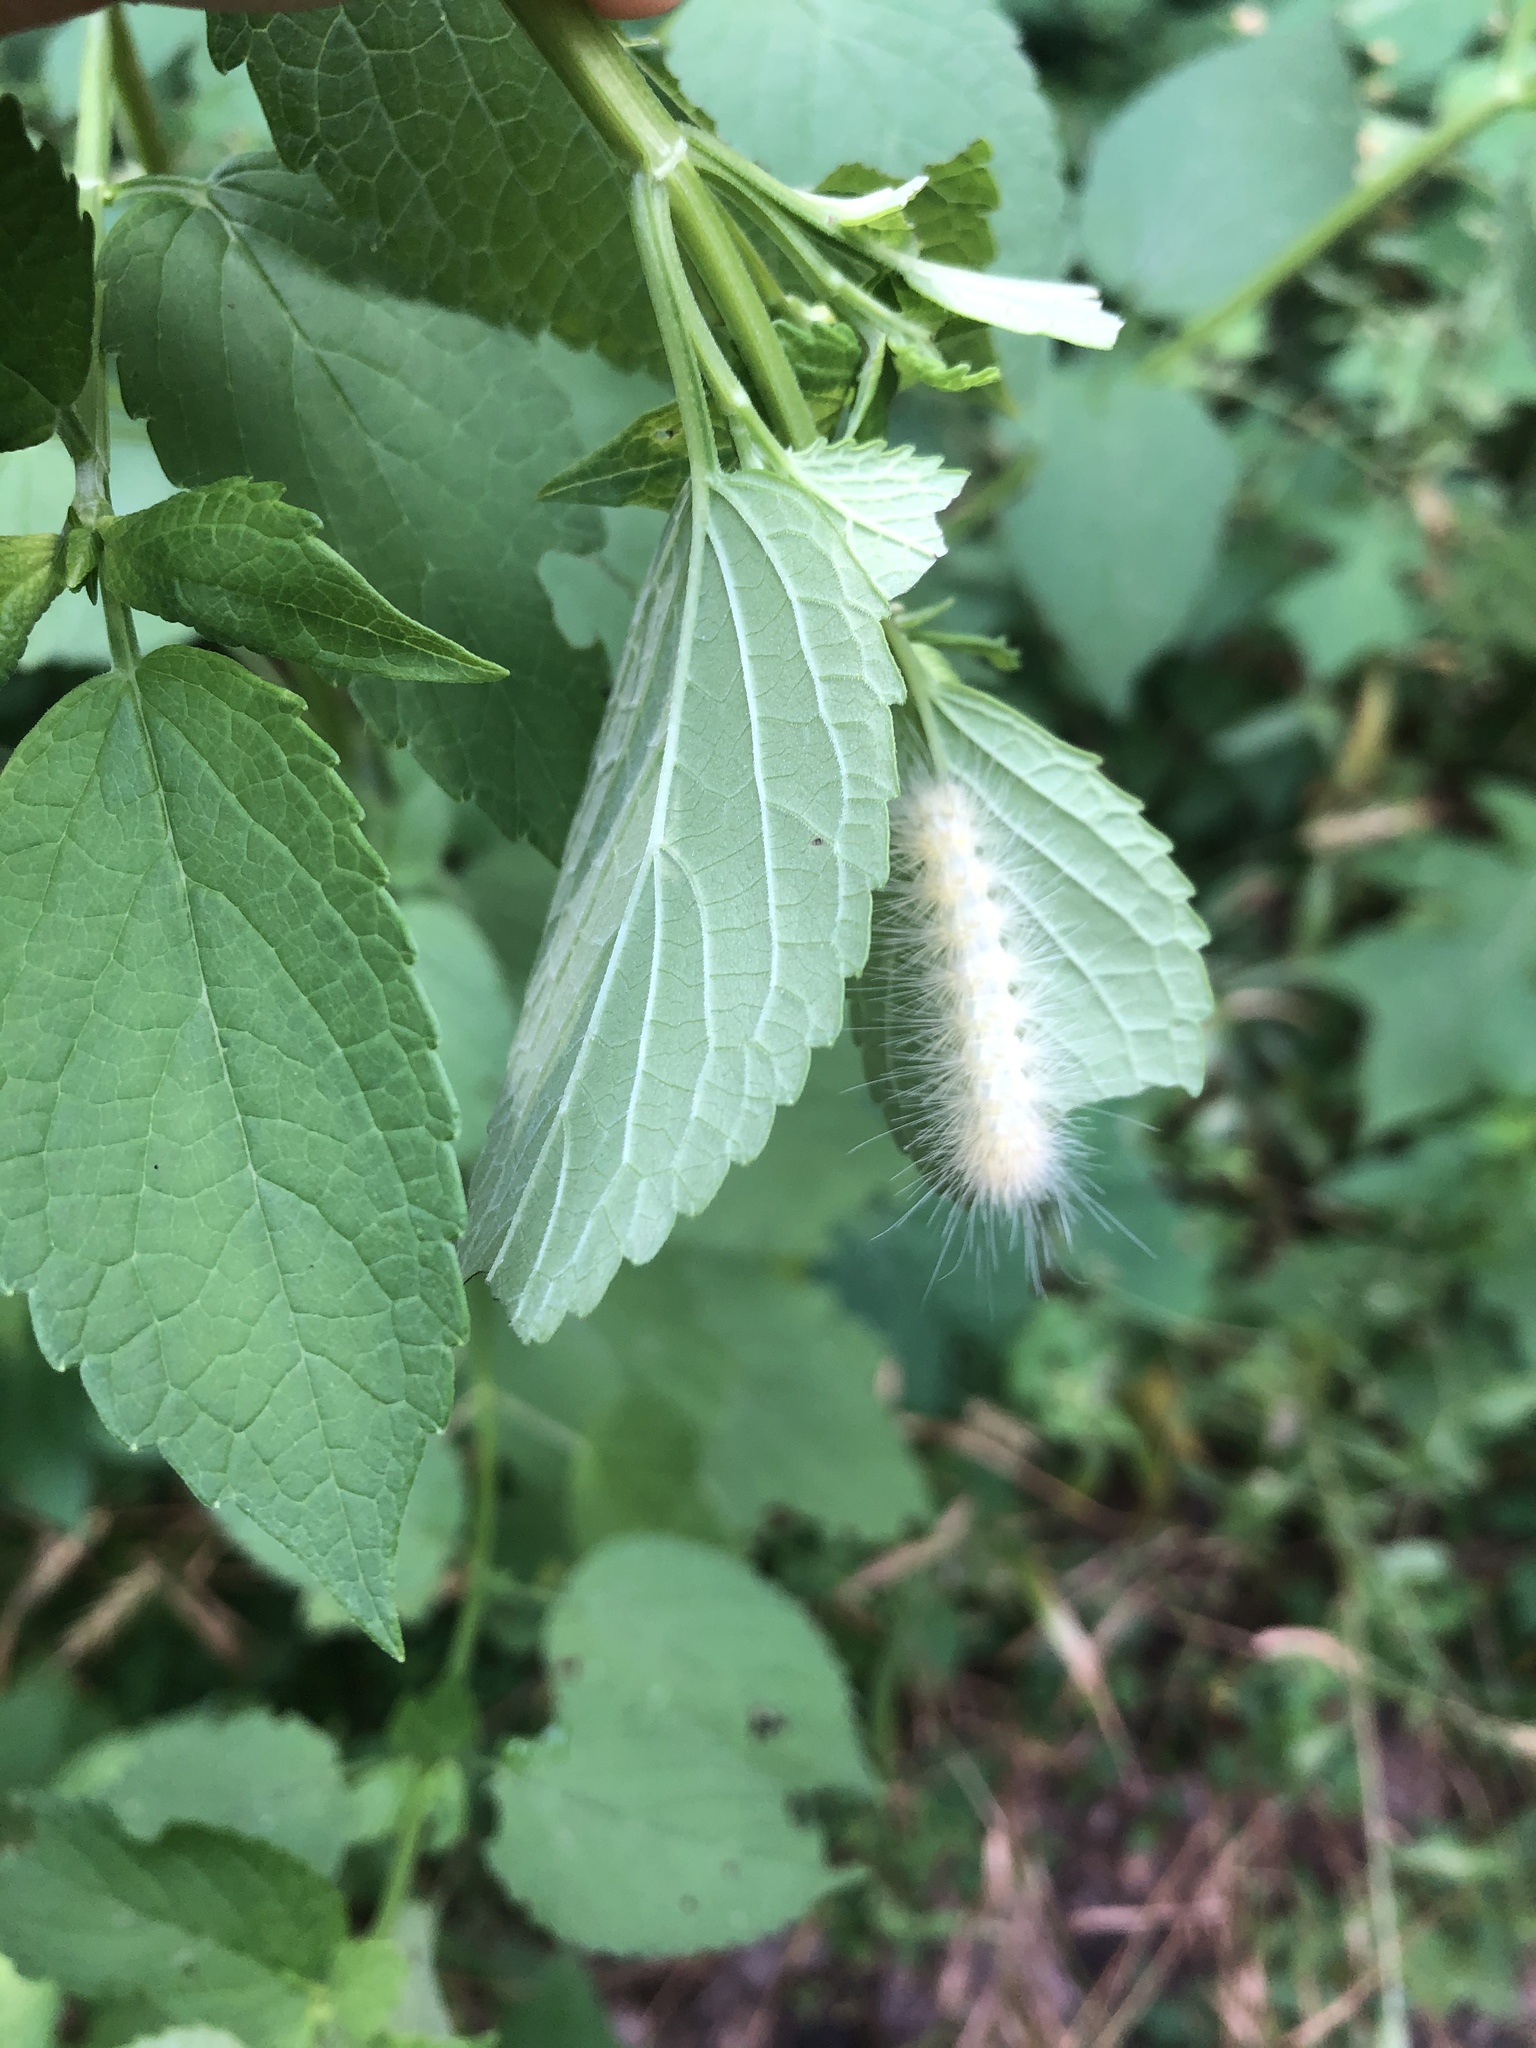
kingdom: Animalia
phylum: Arthropoda
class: Insecta
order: Lepidoptera
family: Erebidae
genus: Spilosoma
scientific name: Spilosoma virginica
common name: Virginia tiger moth
